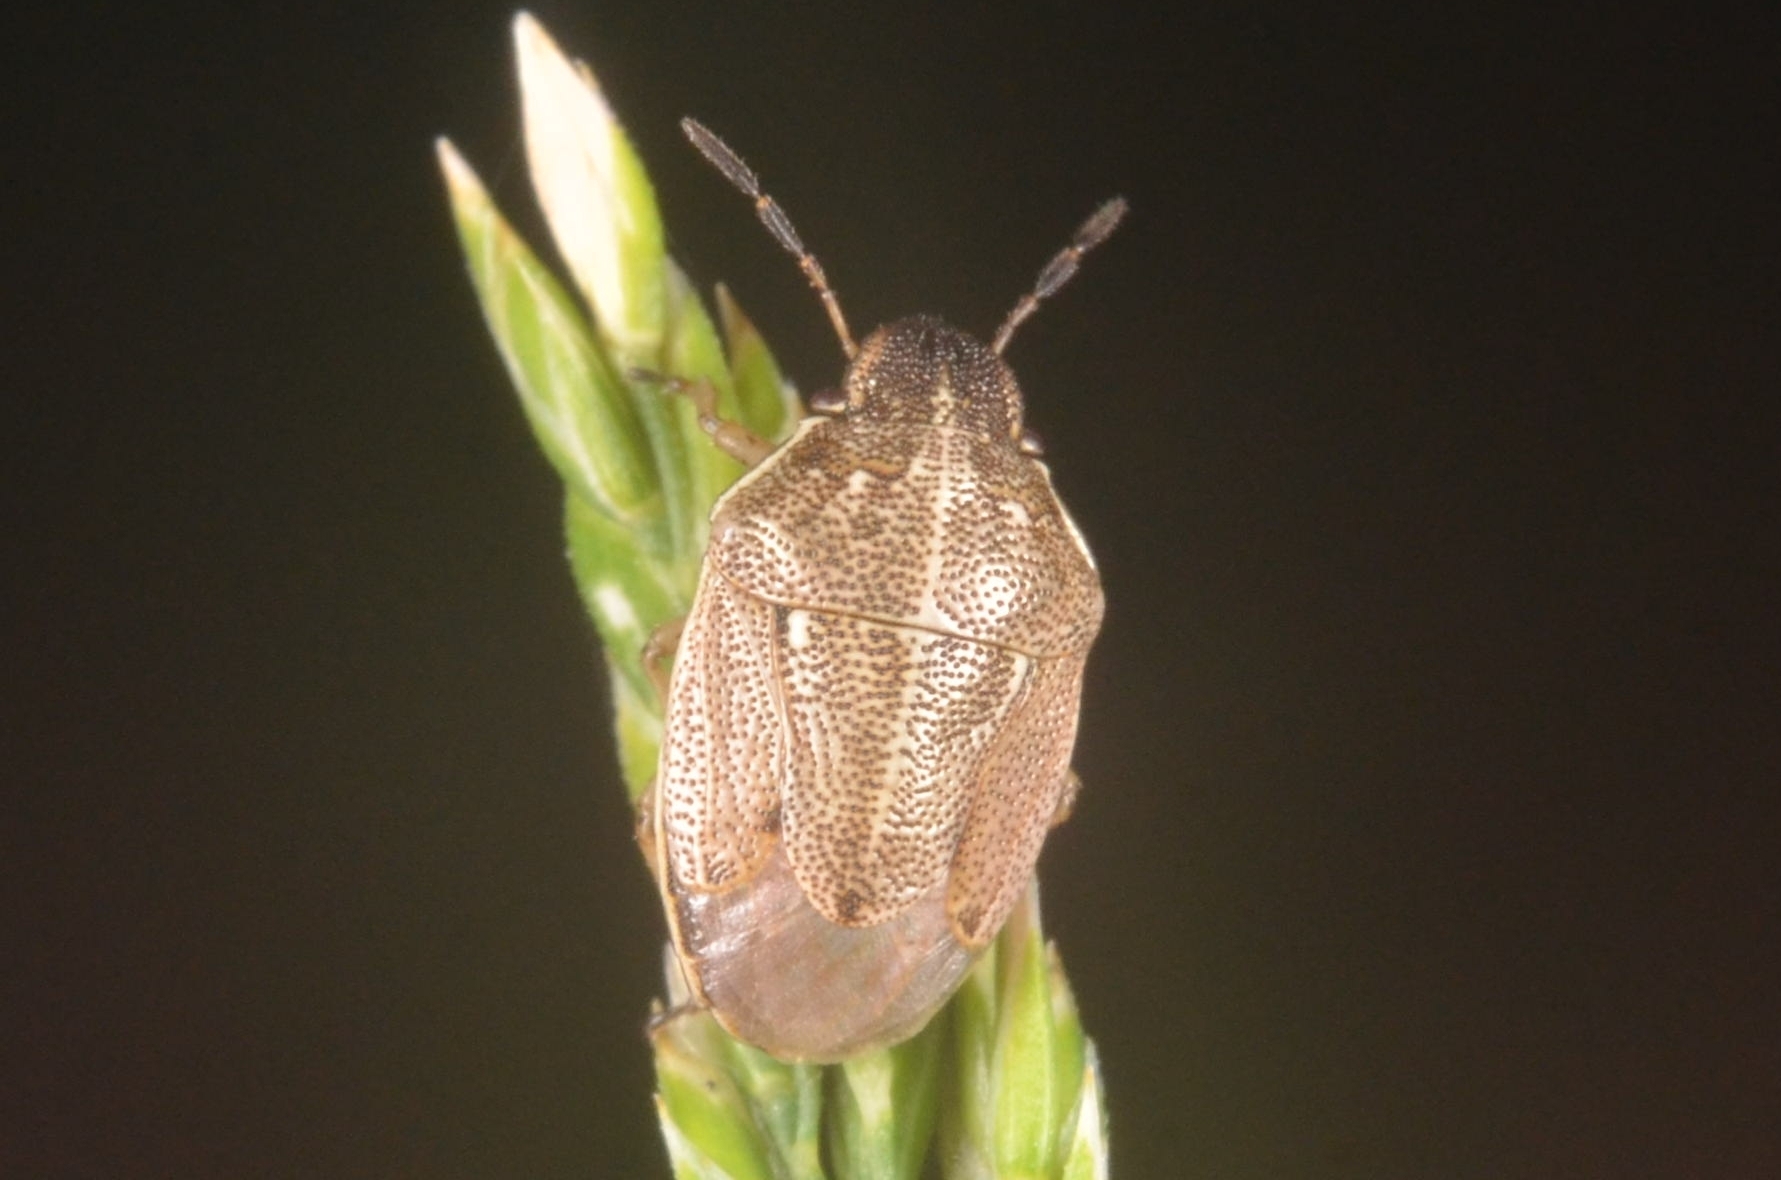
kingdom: Animalia
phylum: Arthropoda
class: Insecta
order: Hemiptera
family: Pentatomidae
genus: Neottiglossa
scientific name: Neottiglossa pusilla
